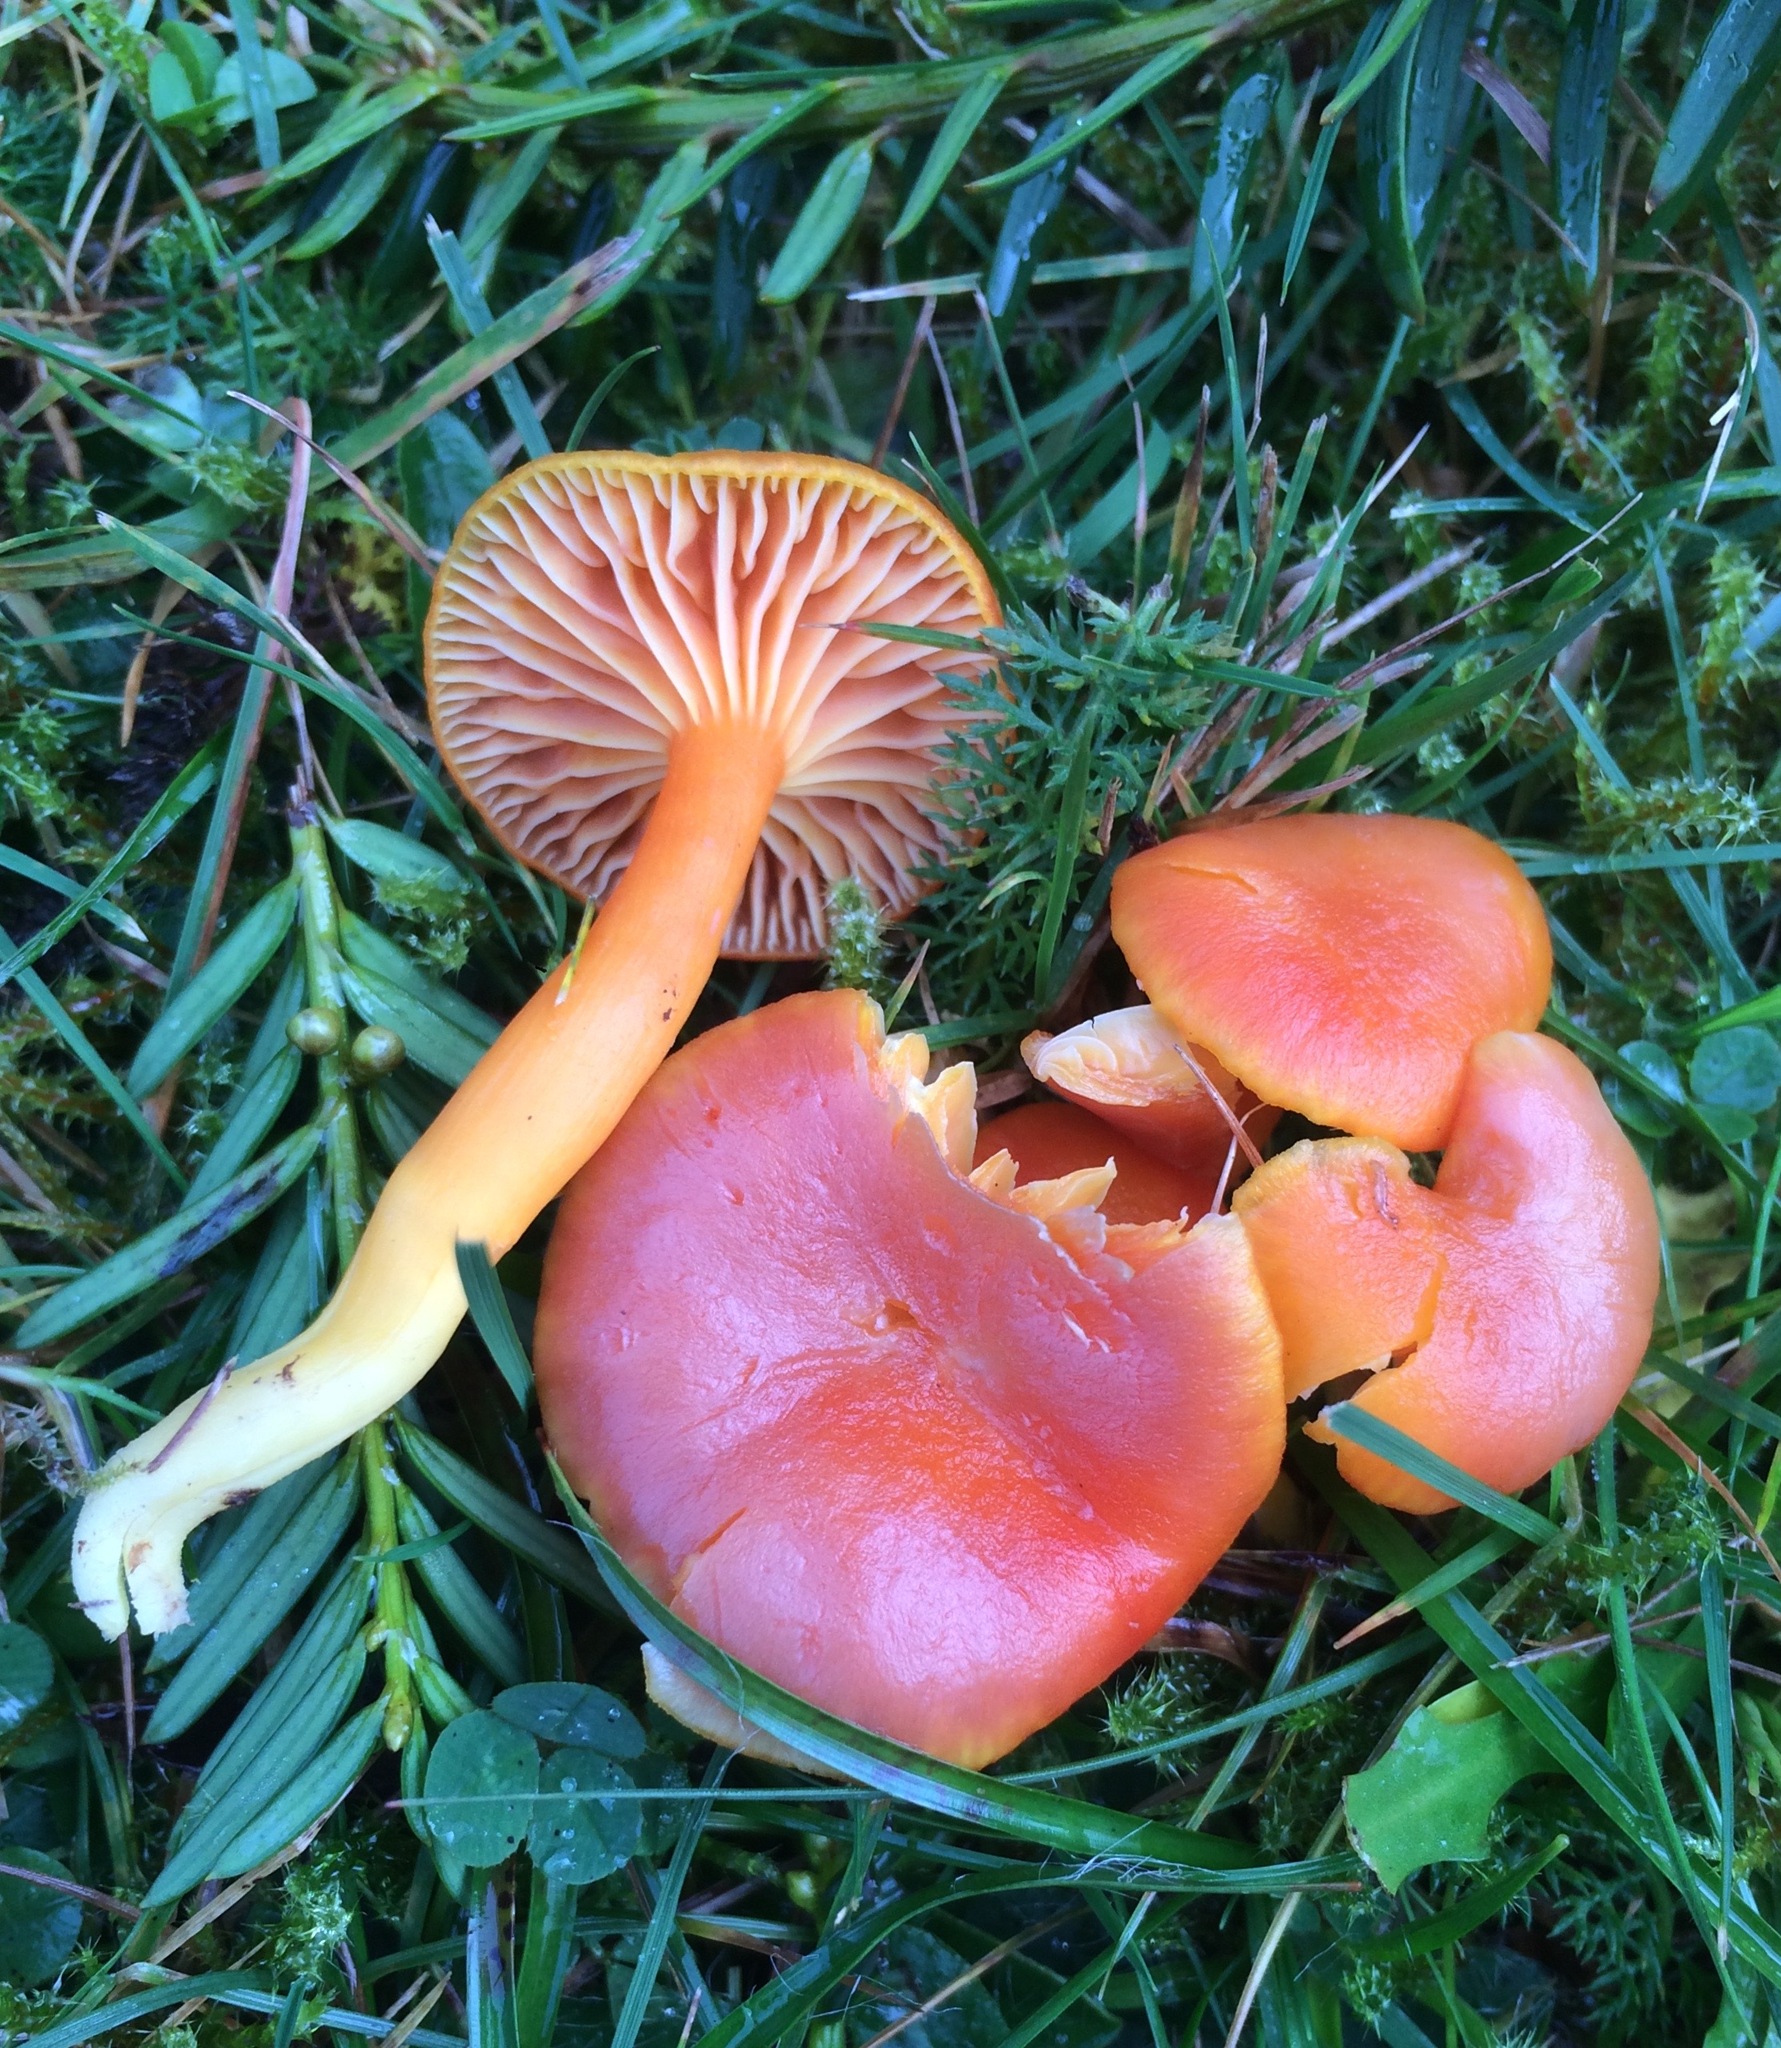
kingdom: Fungi
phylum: Basidiomycota
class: Agaricomycetes
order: Agaricales
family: Hygrophoraceae
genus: Hygrocybe
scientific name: Hygrocybe reidii
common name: Honey waxcap
